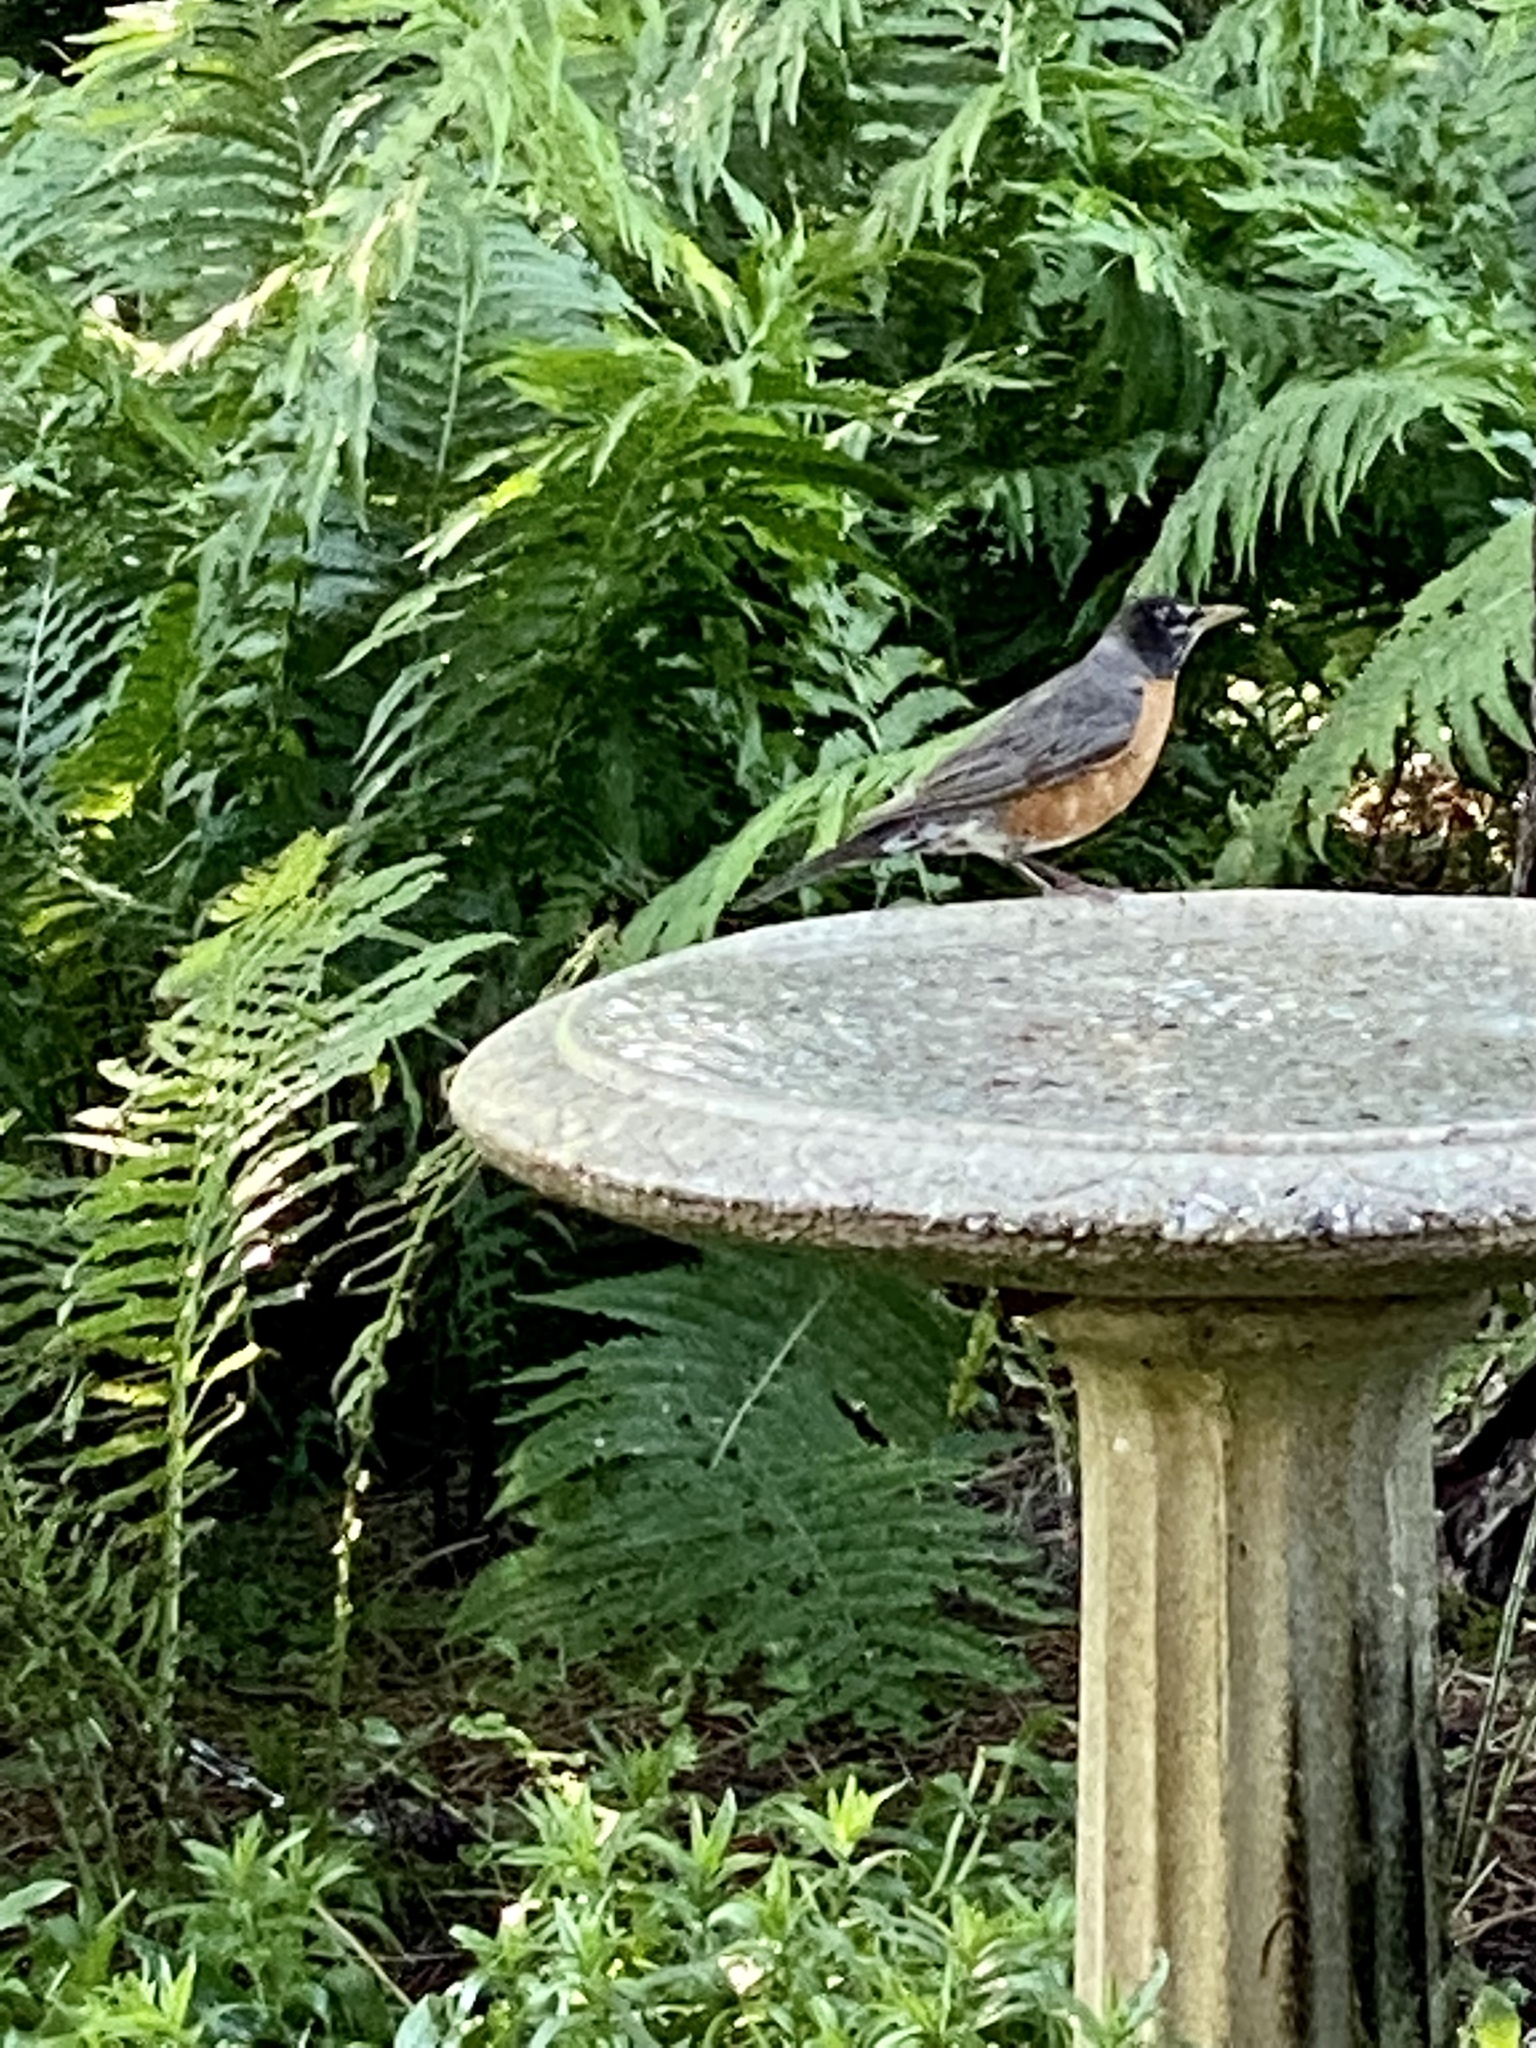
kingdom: Animalia
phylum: Chordata
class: Aves
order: Passeriformes
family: Turdidae
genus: Turdus
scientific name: Turdus migratorius
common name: American robin
